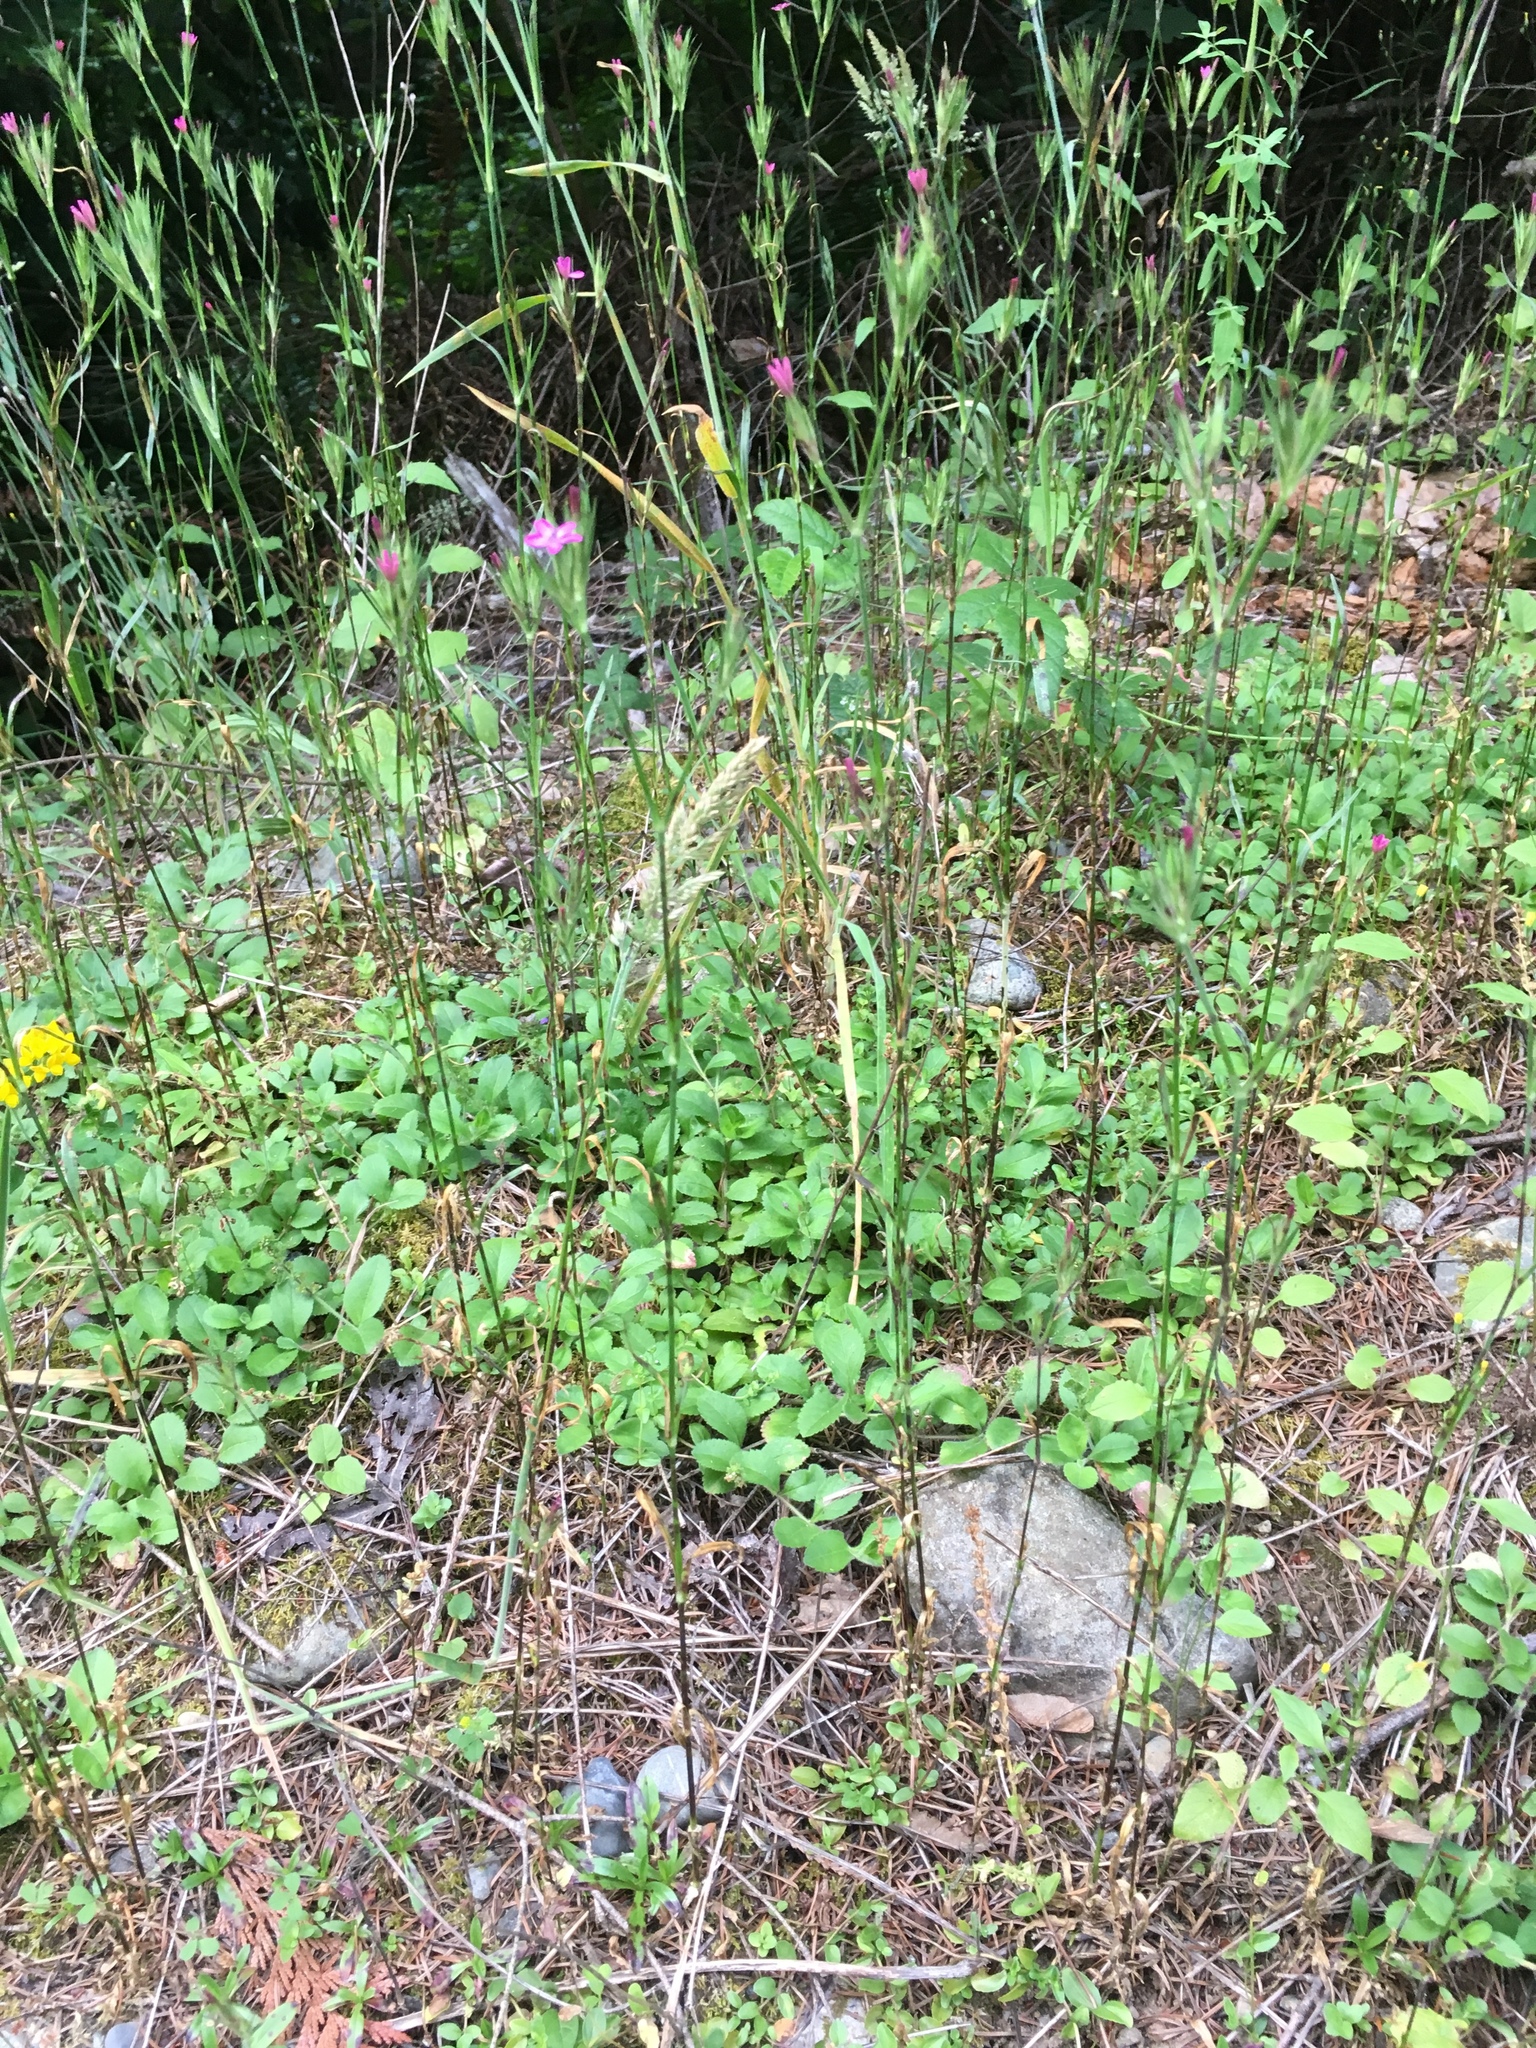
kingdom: Plantae
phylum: Tracheophyta
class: Magnoliopsida
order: Caryophyllales
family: Caryophyllaceae
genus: Dianthus
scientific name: Dianthus armeria
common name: Deptford pink
